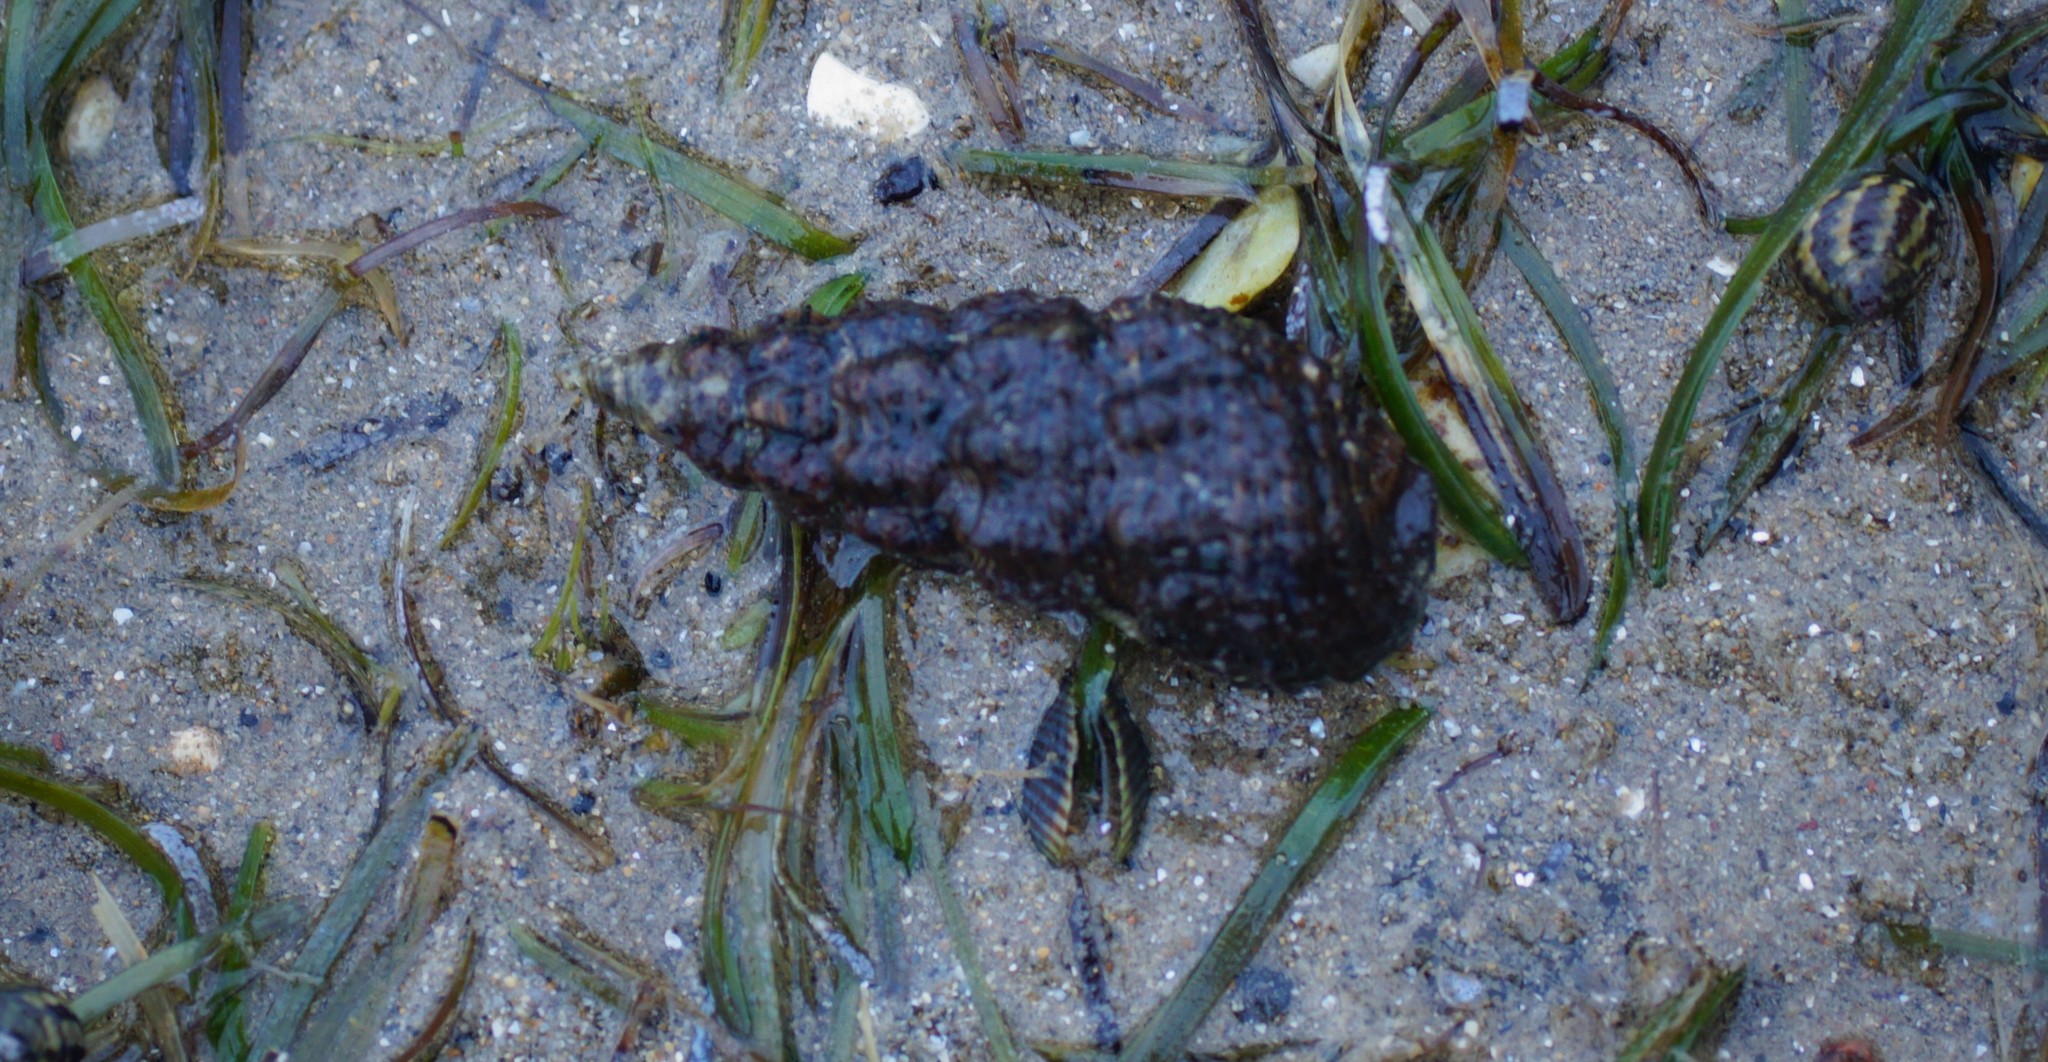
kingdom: Animalia
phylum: Mollusca
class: Gastropoda
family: Batillariidae
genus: Batillaria
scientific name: Batillaria australis
